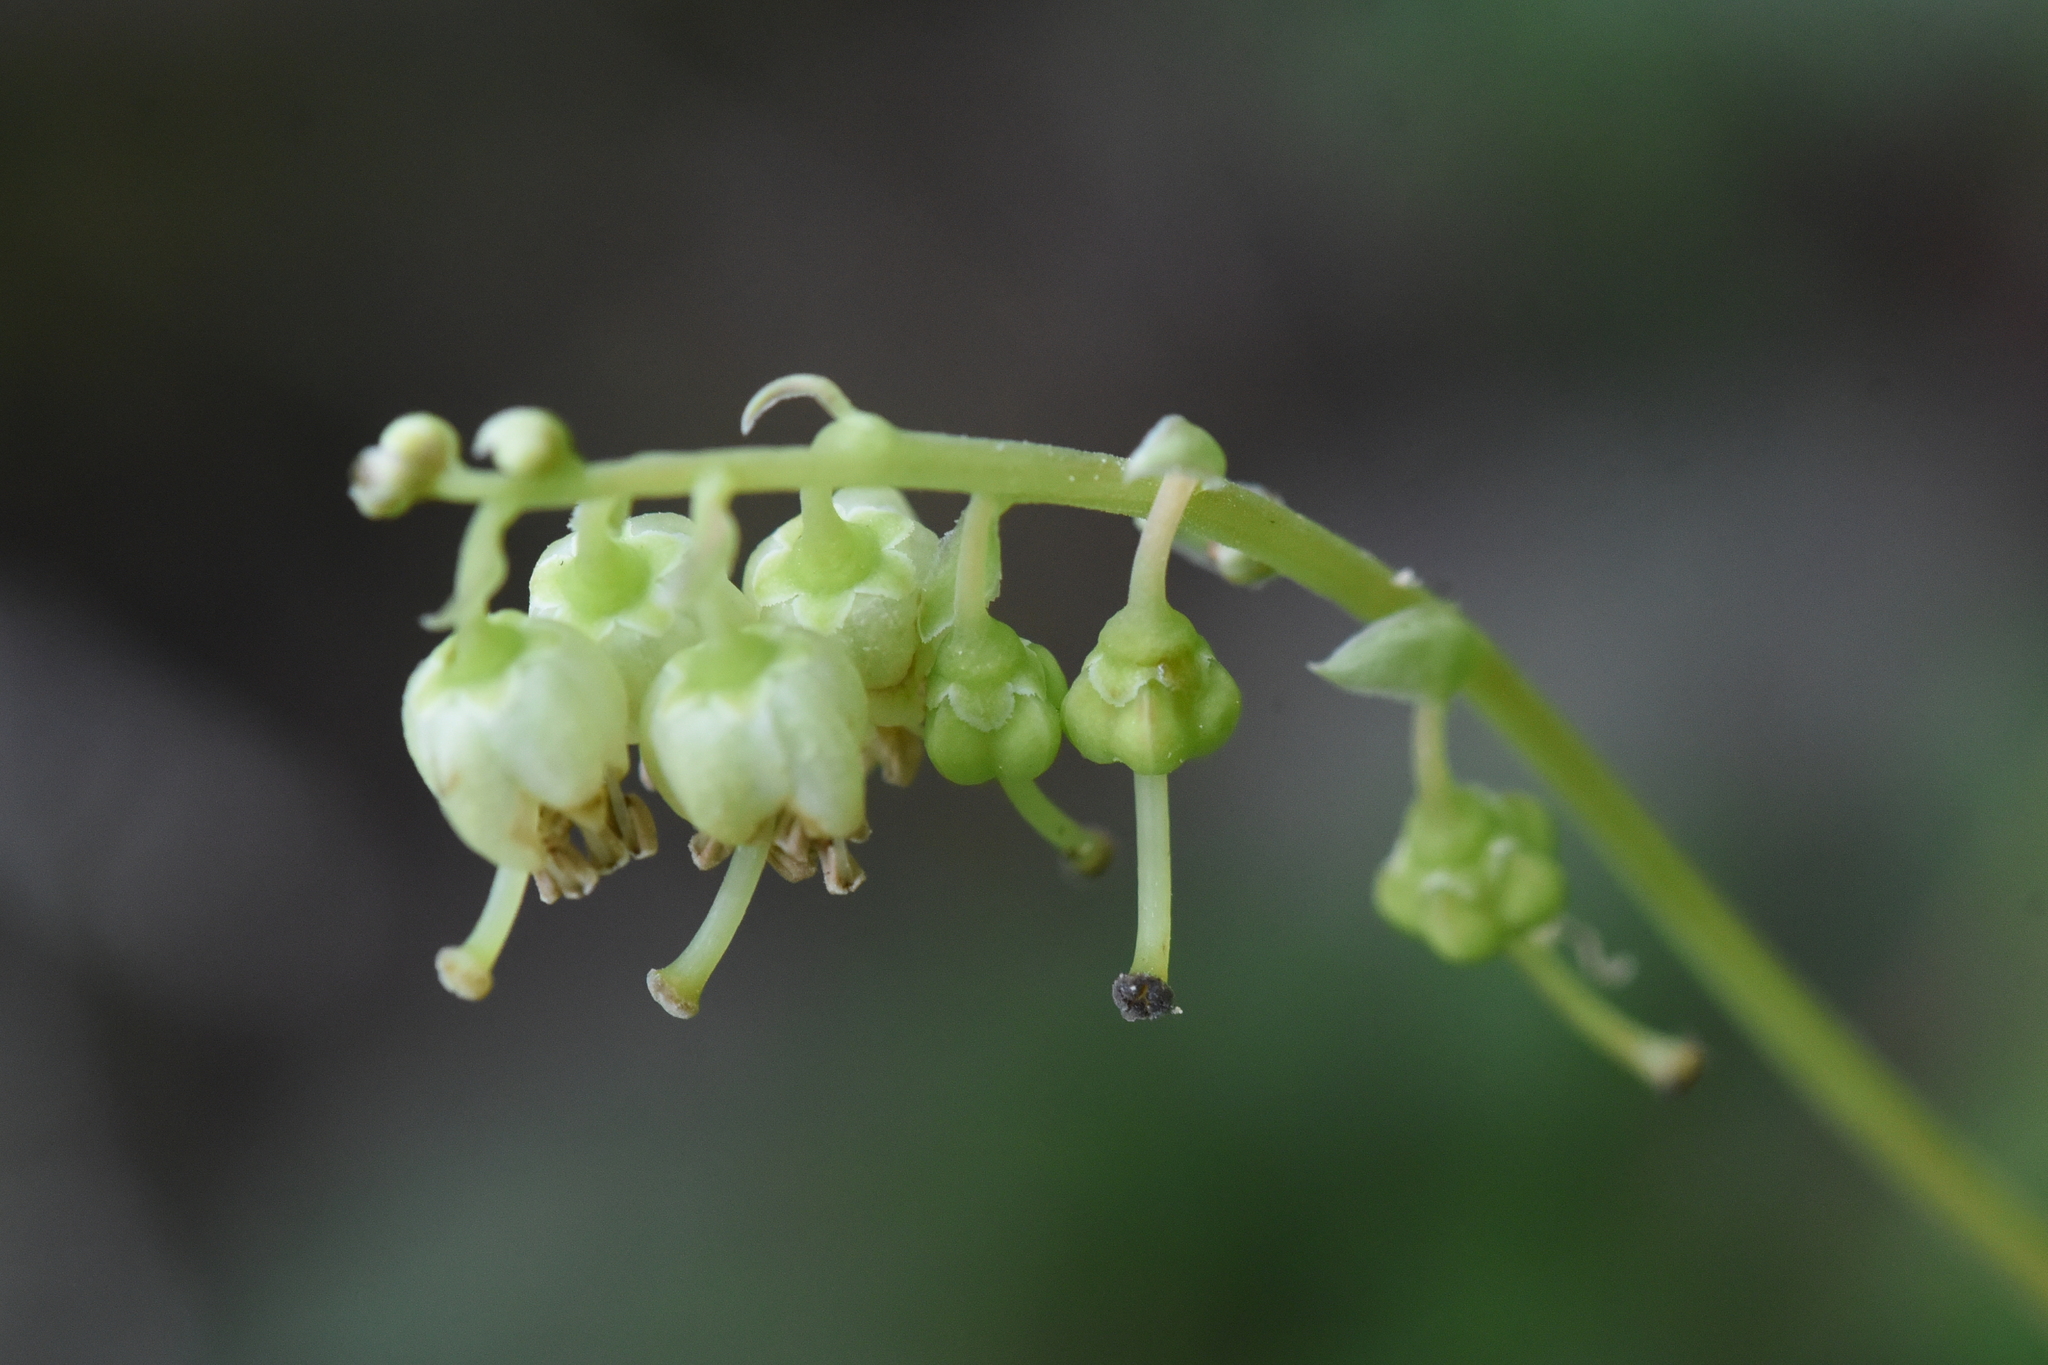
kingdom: Plantae
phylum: Tracheophyta
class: Magnoliopsida
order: Ericales
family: Ericaceae
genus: Orthilia
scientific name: Orthilia secunda
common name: One-sided orthilia
